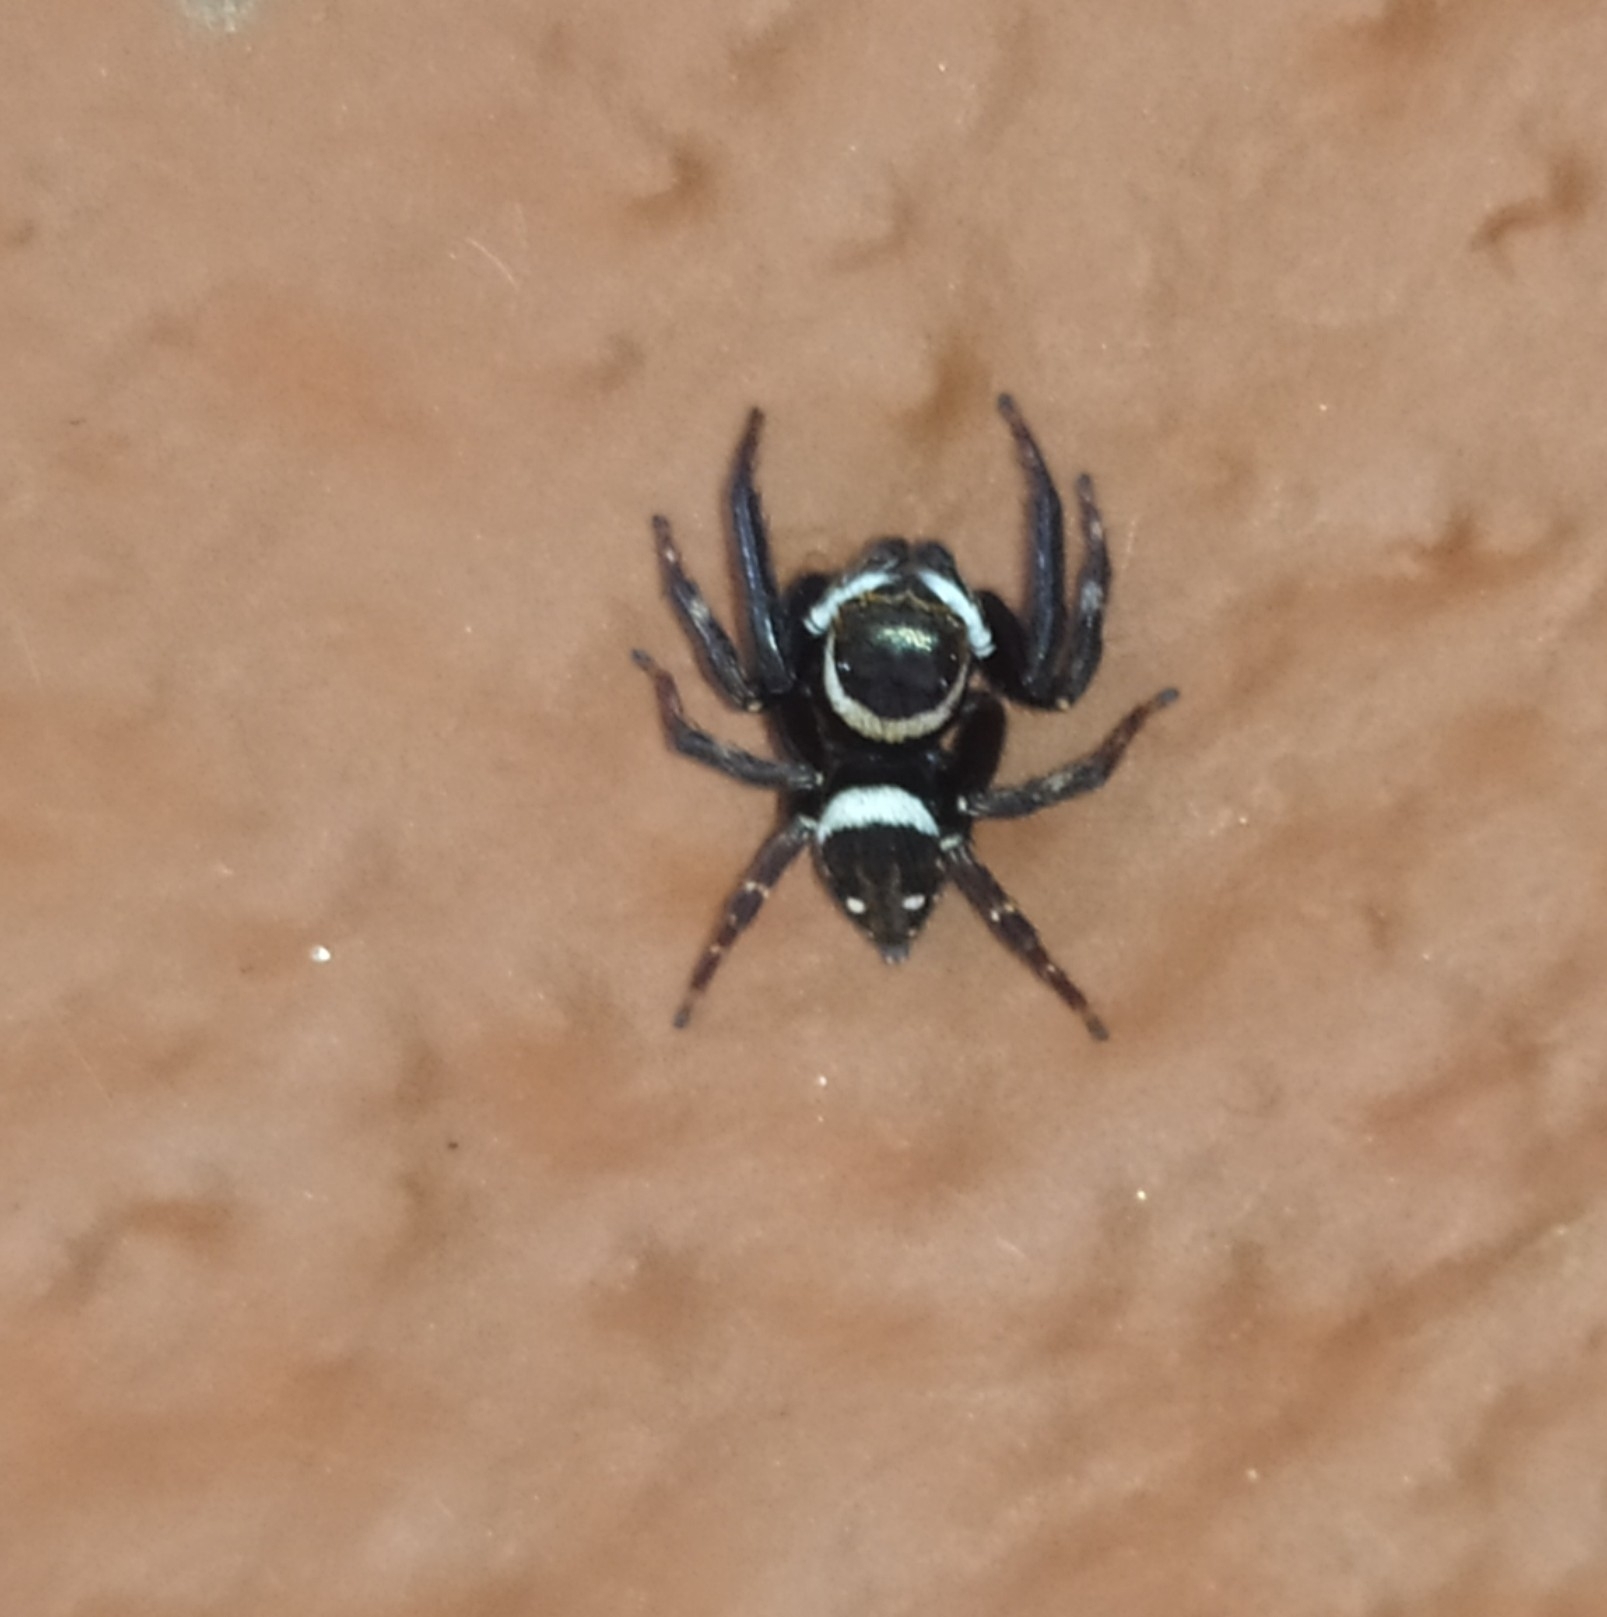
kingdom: Animalia
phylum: Arthropoda
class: Arachnida
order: Araneae
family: Salticidae
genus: Hasarius
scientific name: Hasarius adansoni
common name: Jumping spider
